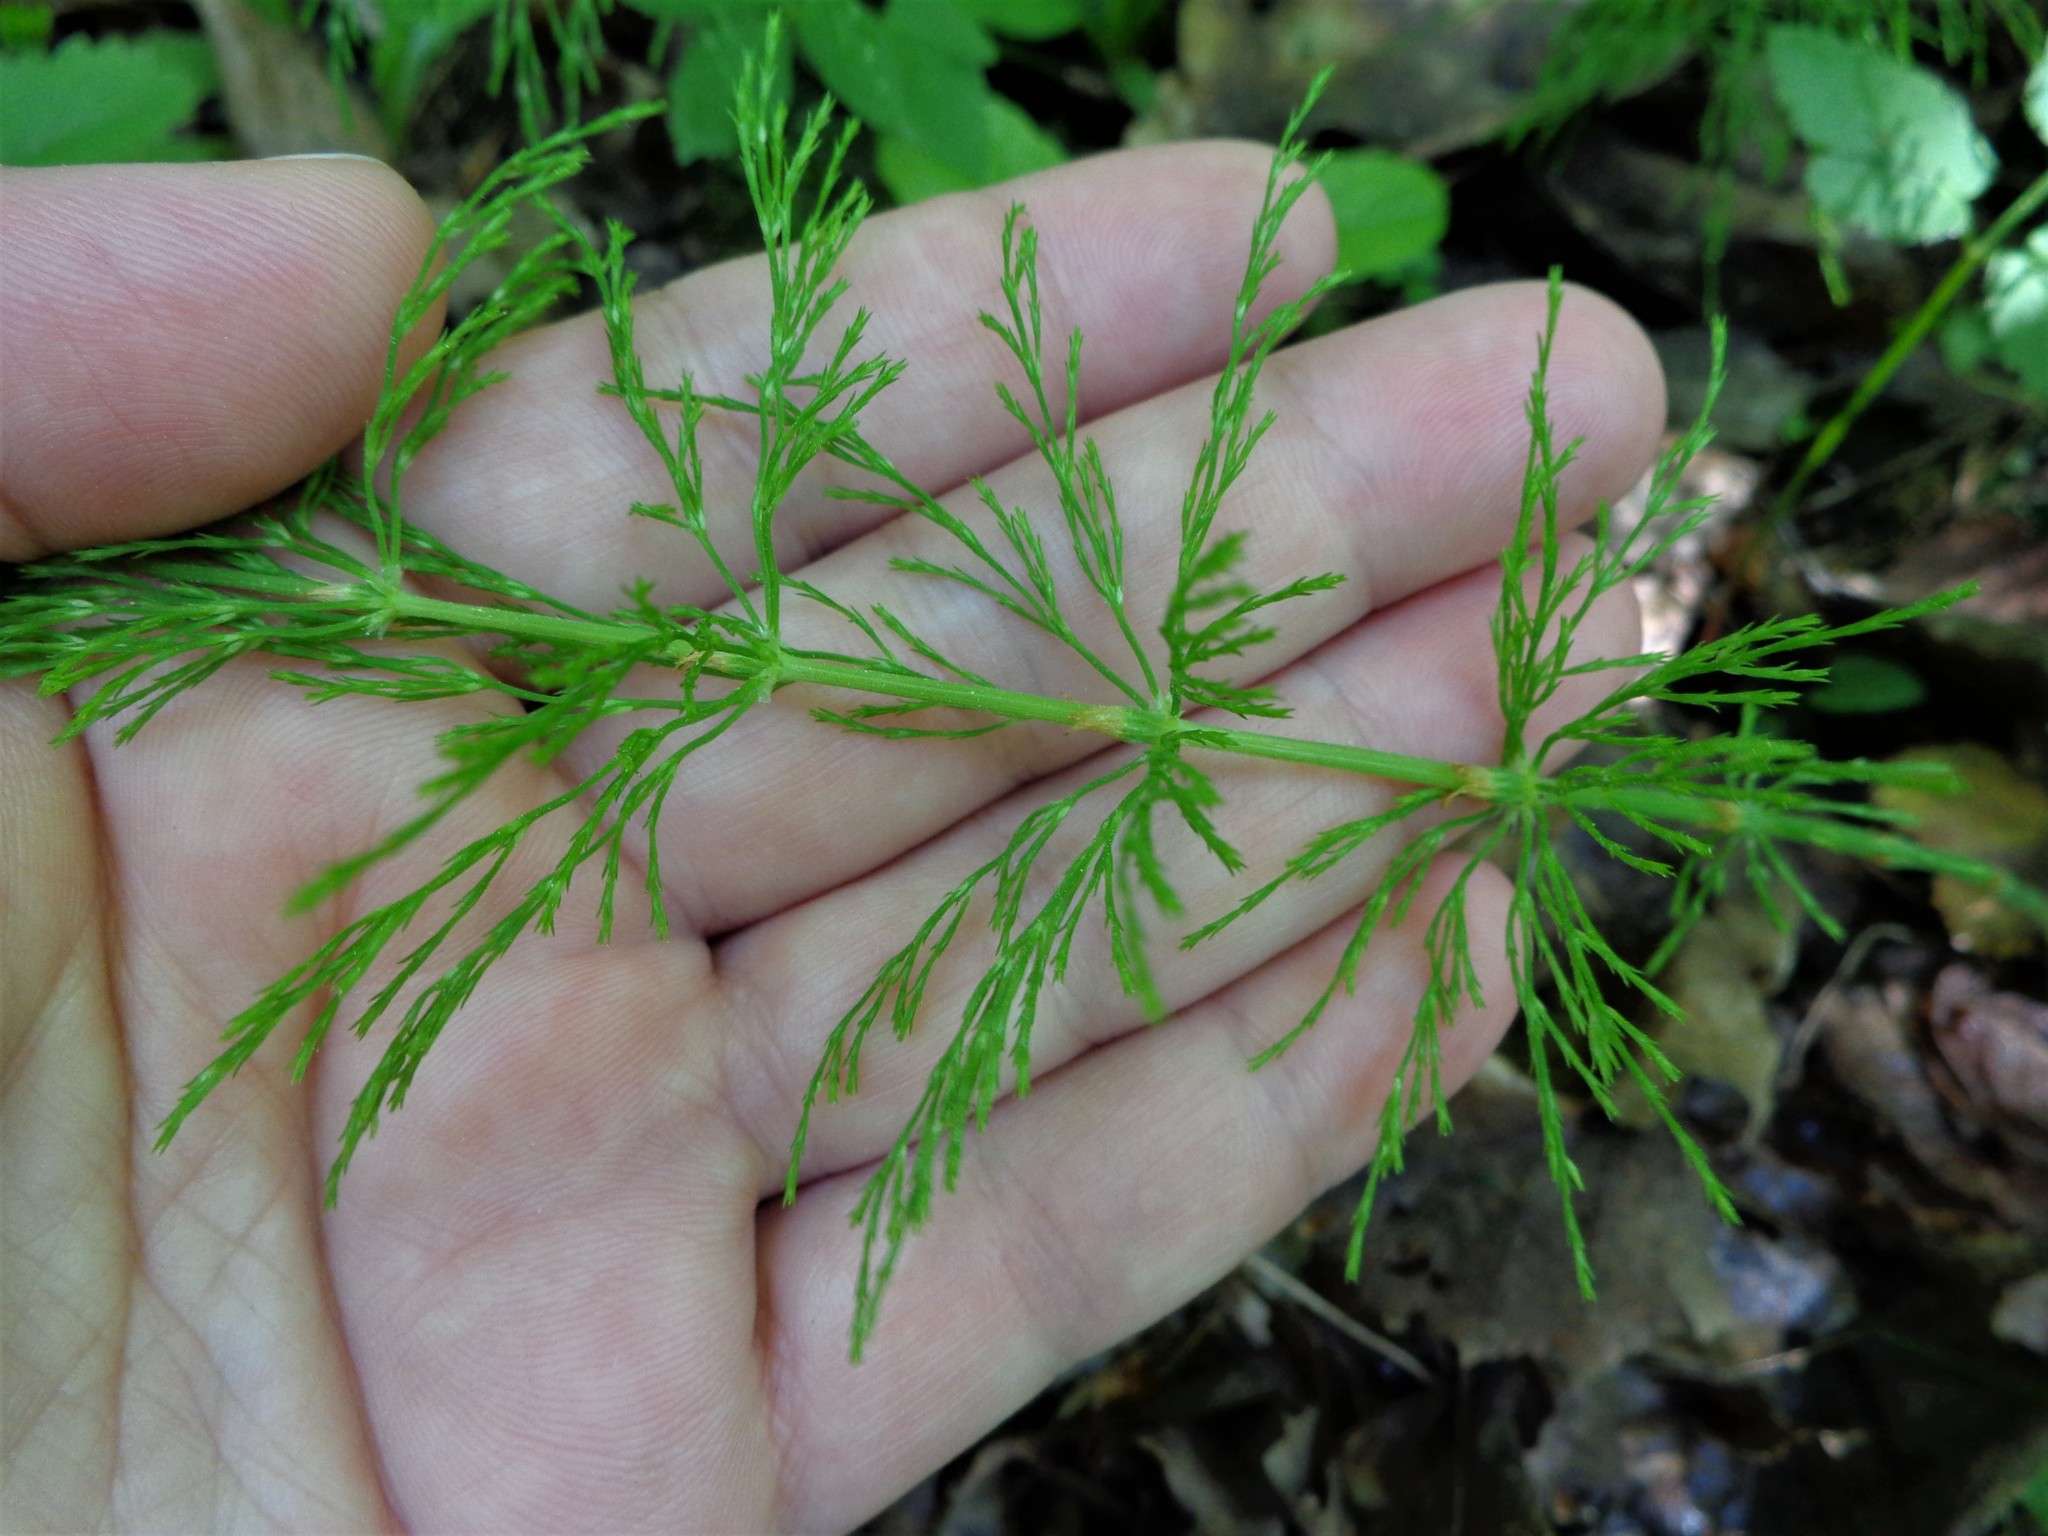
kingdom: Plantae
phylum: Tracheophyta
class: Polypodiopsida
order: Equisetales
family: Equisetaceae
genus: Equisetum
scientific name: Equisetum sylvaticum
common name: Wood horsetail
